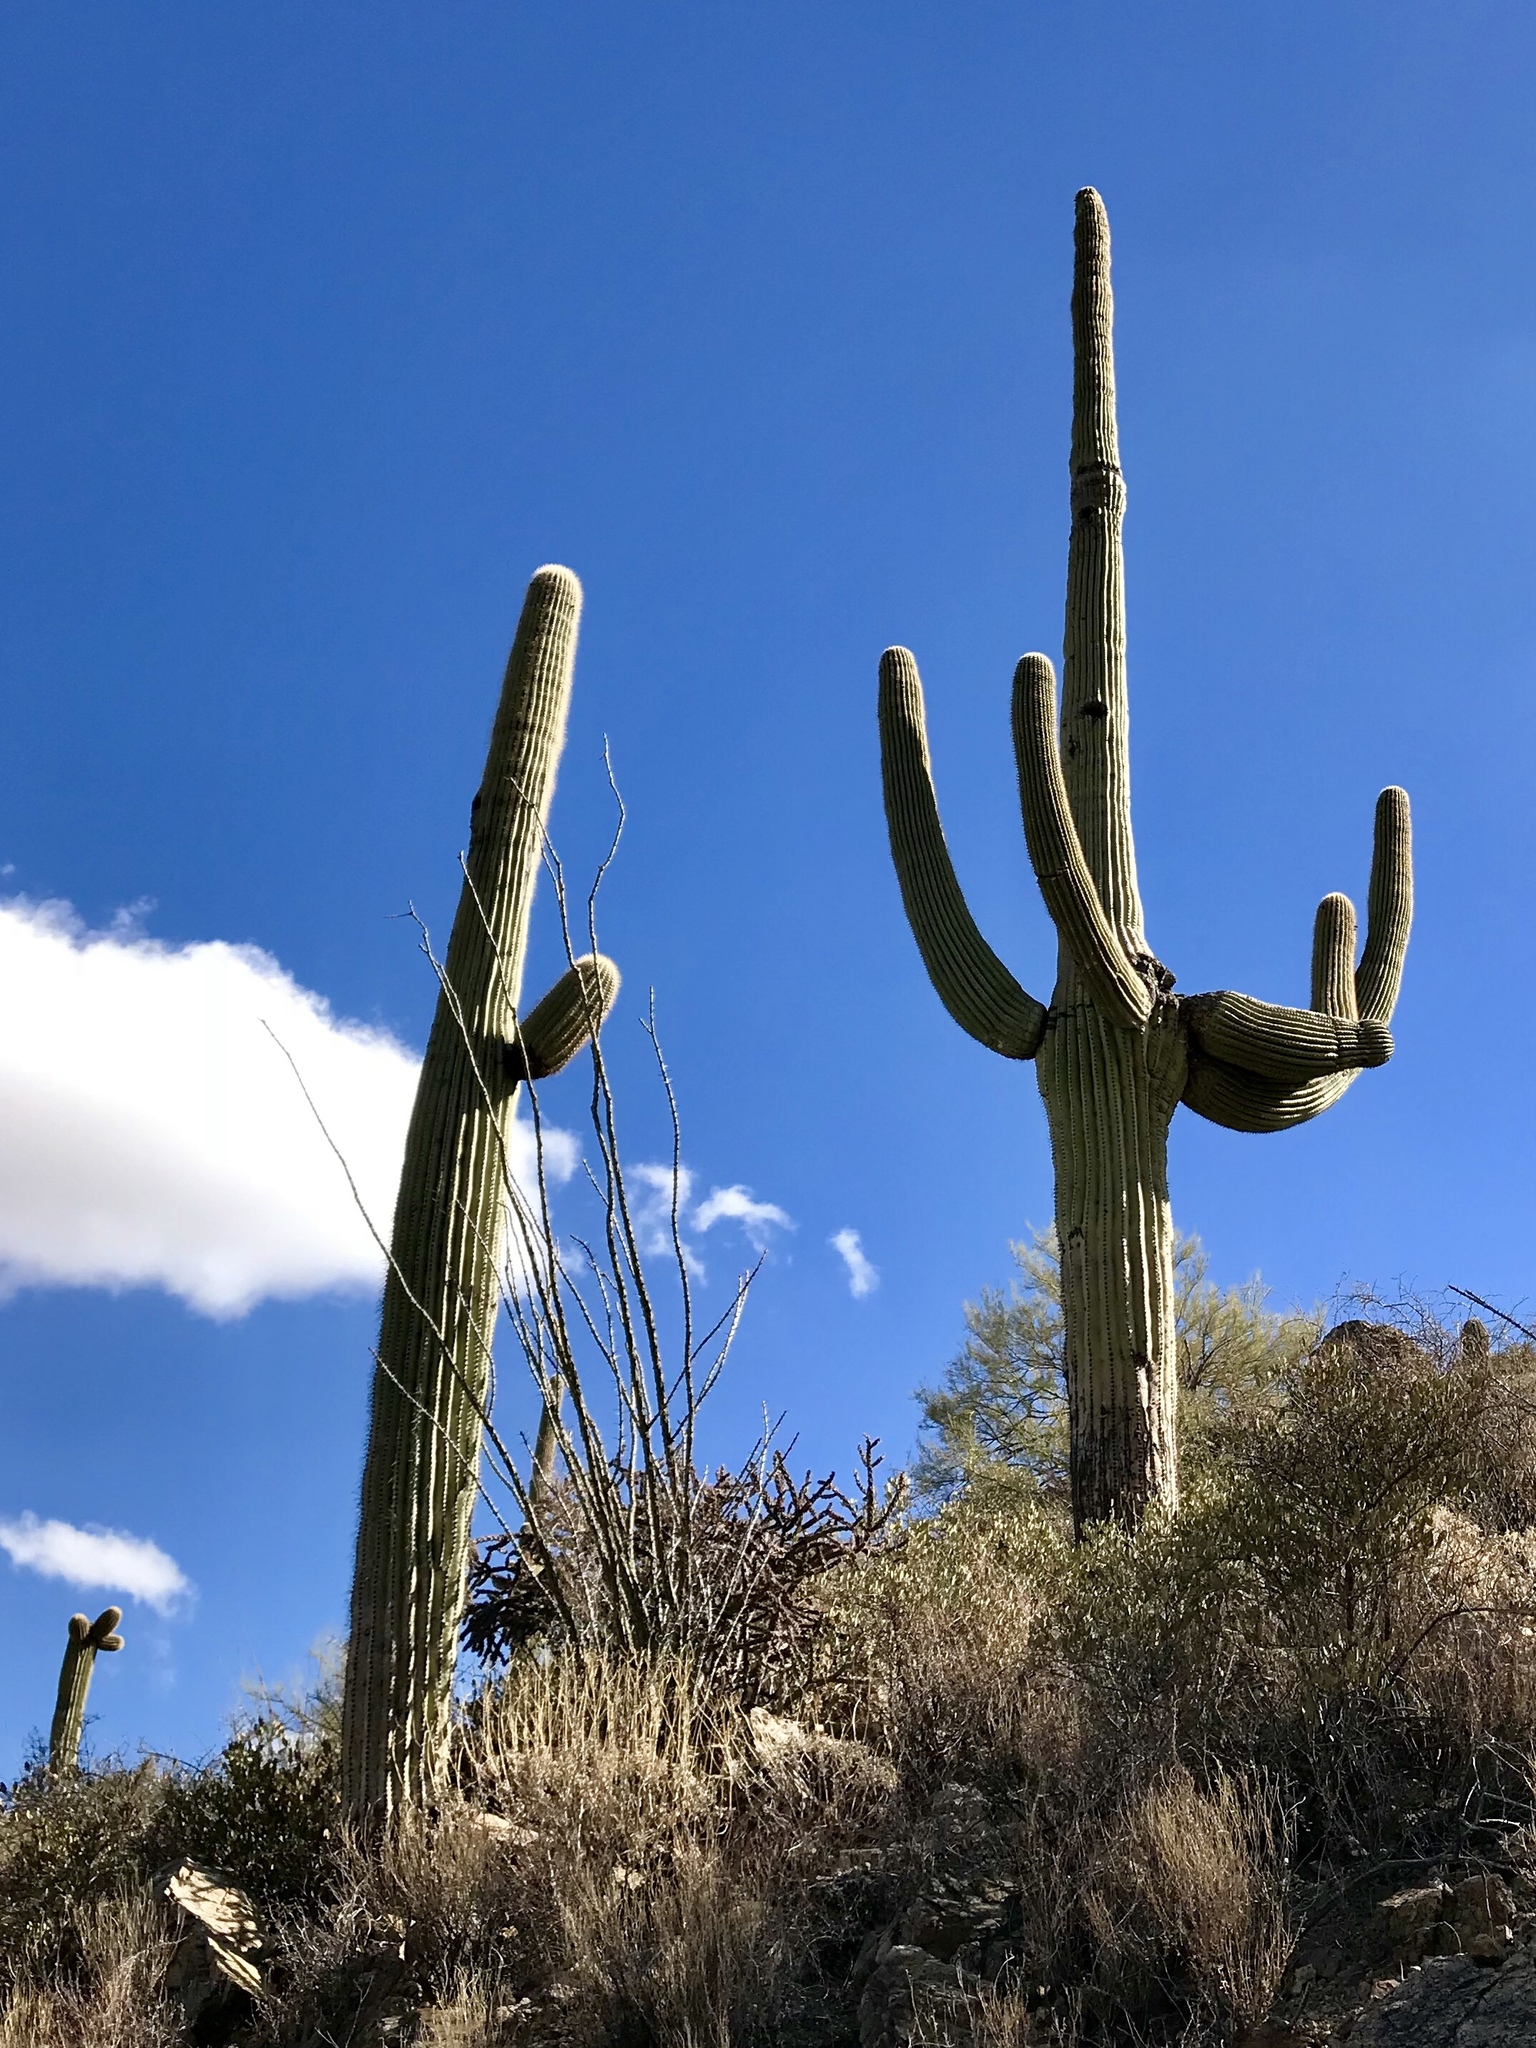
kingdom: Plantae
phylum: Tracheophyta
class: Magnoliopsida
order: Caryophyllales
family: Cactaceae
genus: Carnegiea
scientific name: Carnegiea gigantea
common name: Saguaro
